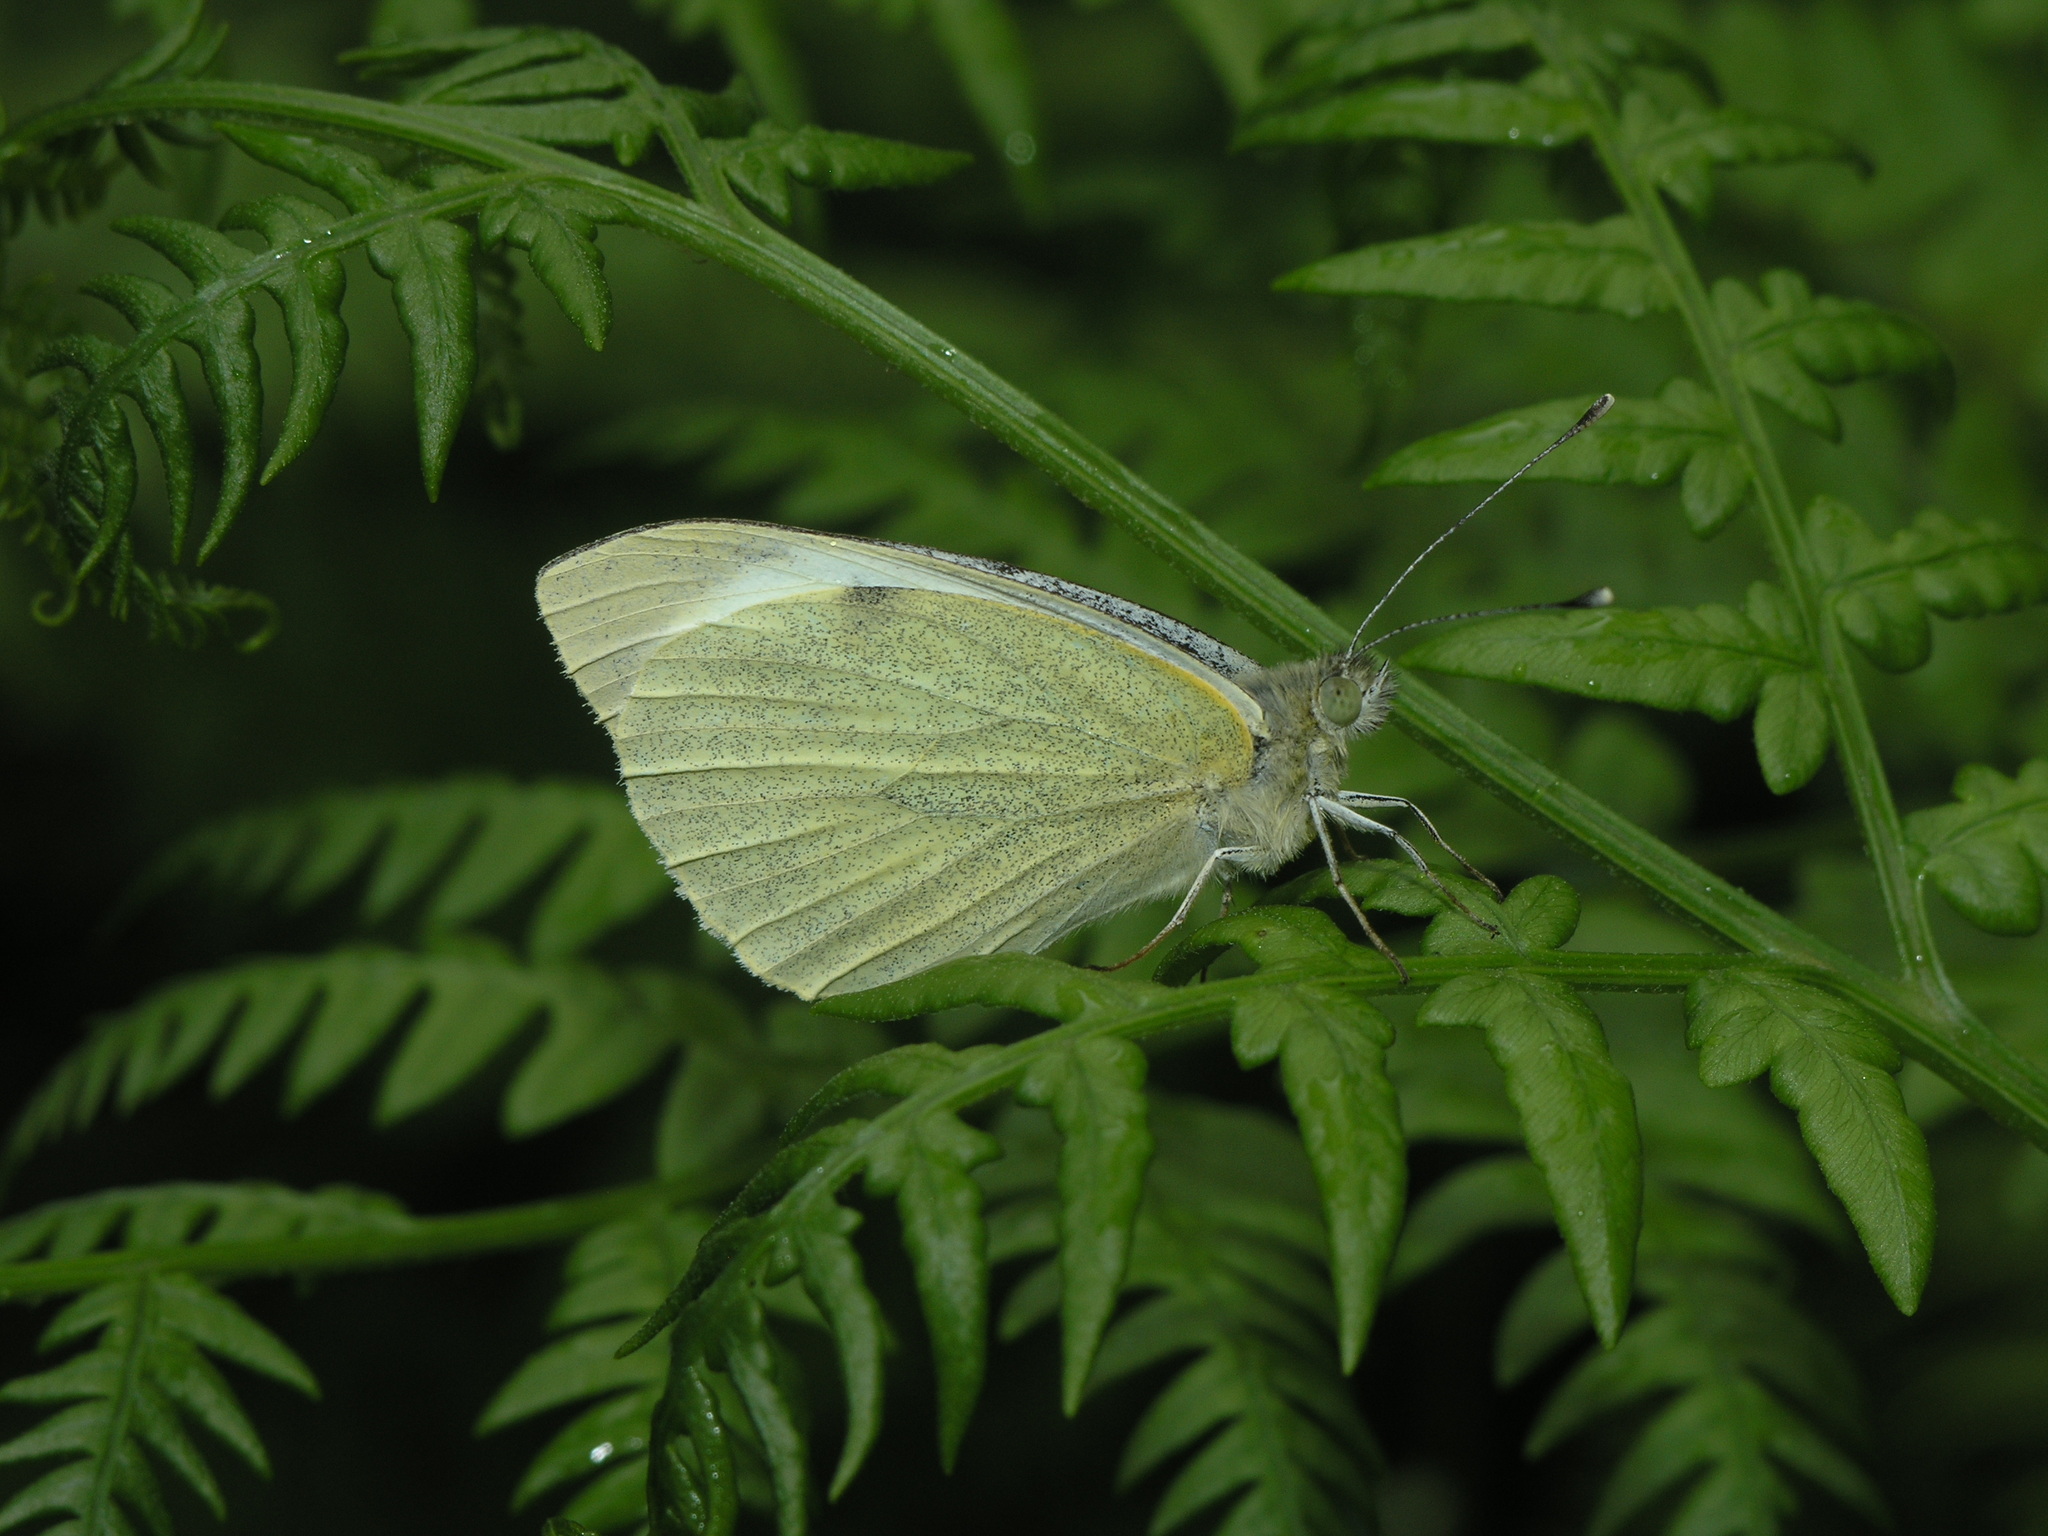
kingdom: Animalia
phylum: Arthropoda
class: Insecta
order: Lepidoptera
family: Pieridae
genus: Pieris
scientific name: Pieris brassicae
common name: Large white
